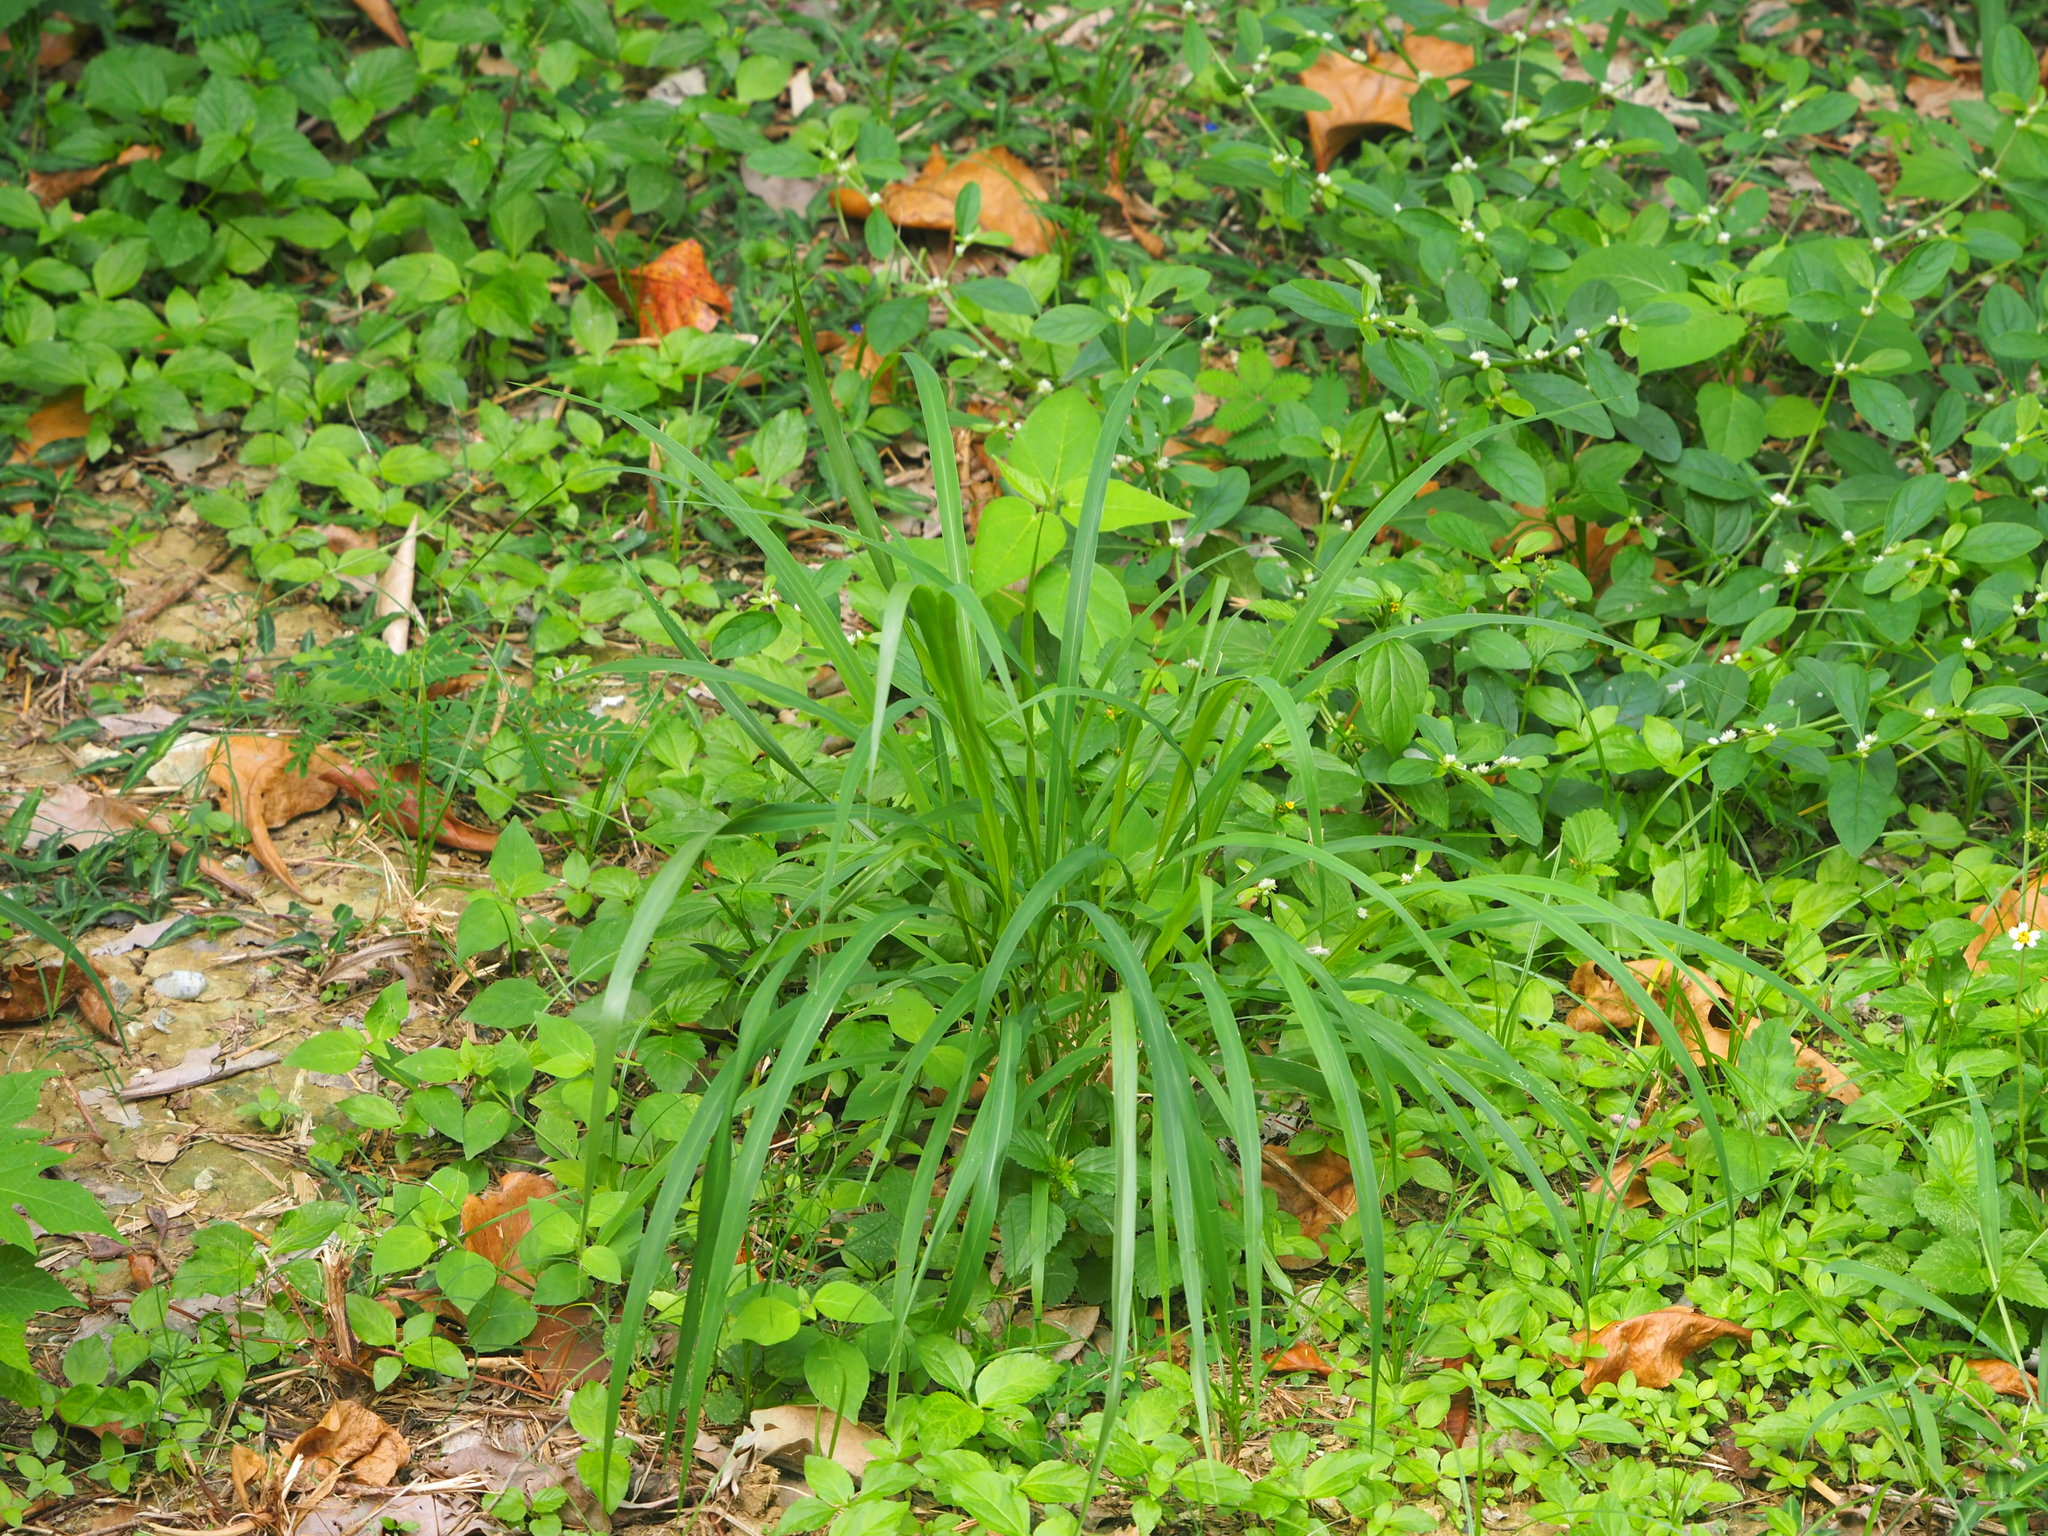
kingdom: Plantae
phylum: Tracheophyta
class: Liliopsida
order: Poales
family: Poaceae
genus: Megathyrsus
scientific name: Megathyrsus maximus
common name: Guineagrass
